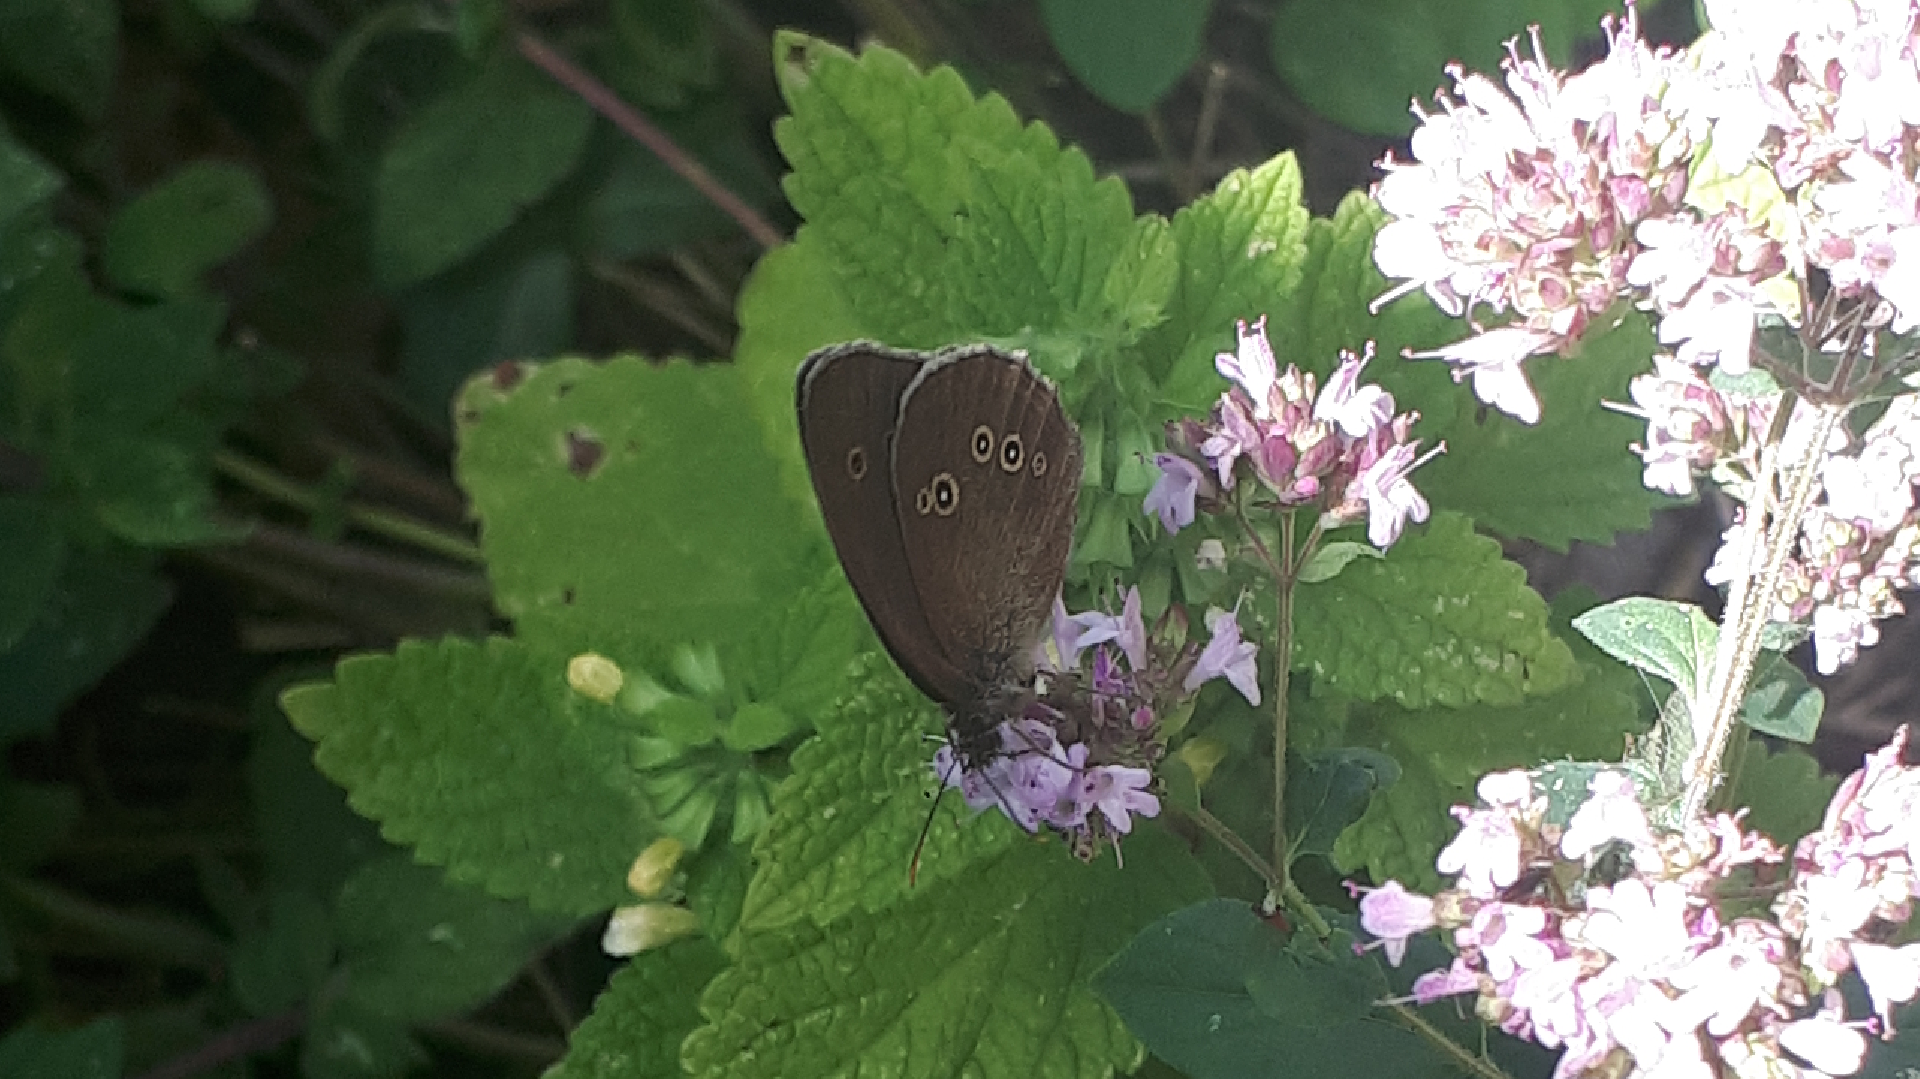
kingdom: Animalia
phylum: Arthropoda
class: Insecta
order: Lepidoptera
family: Nymphalidae
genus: Aphantopus
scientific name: Aphantopus hyperantus
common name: Ringlet
